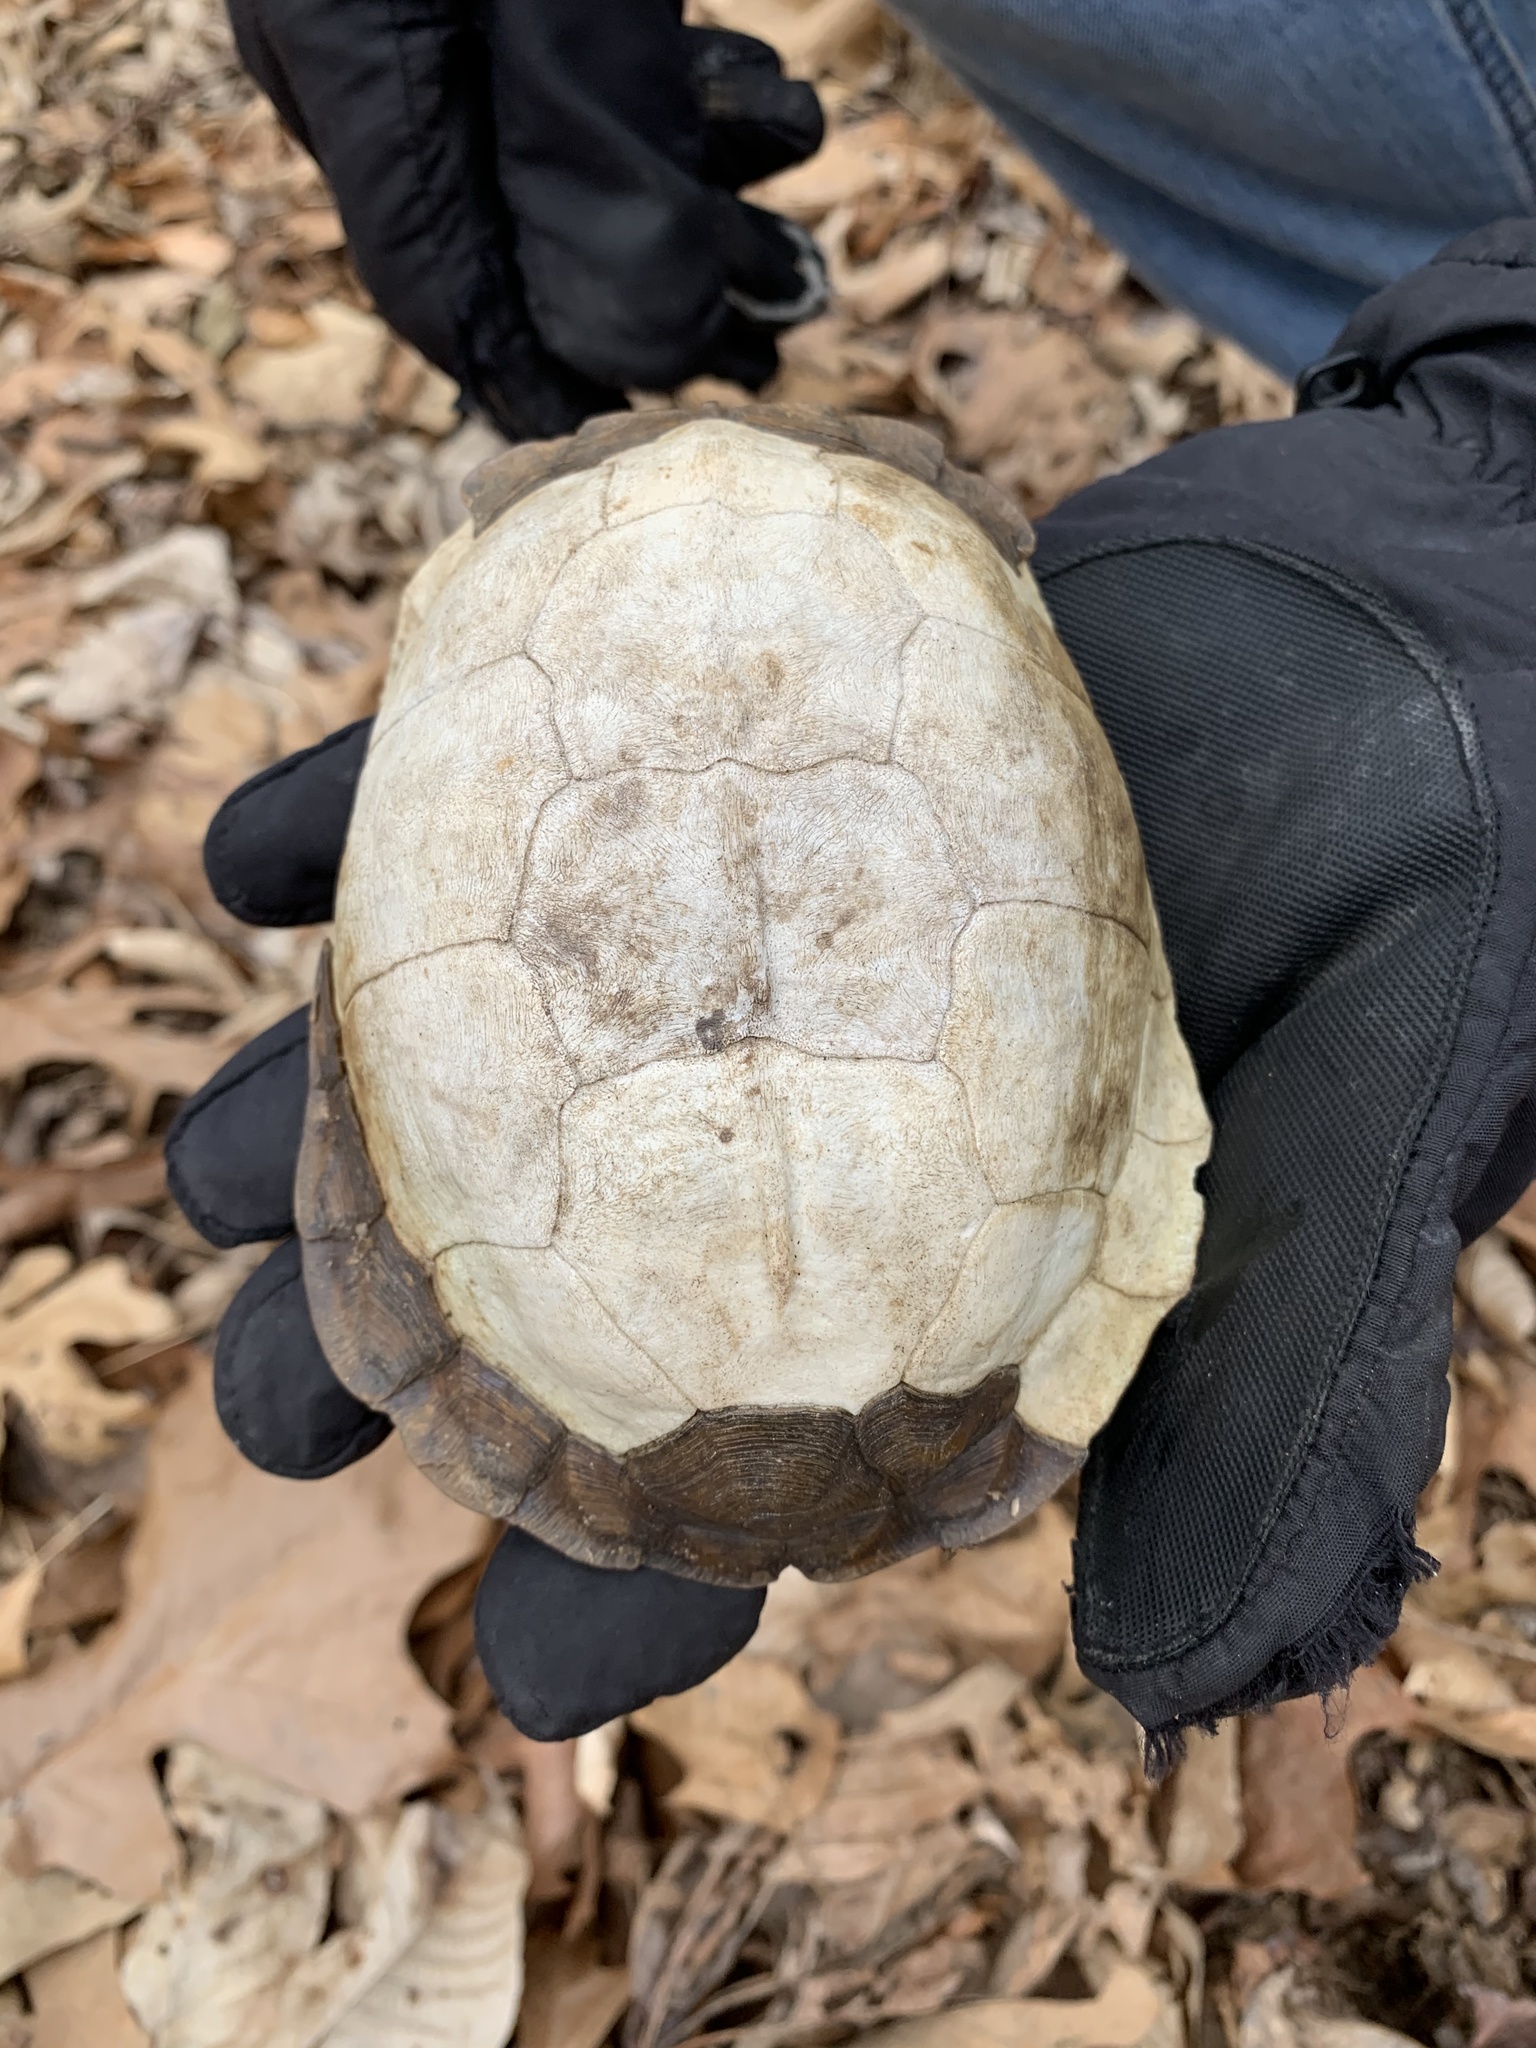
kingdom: Animalia
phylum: Chordata
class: Testudines
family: Emydidae
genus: Terrapene
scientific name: Terrapene carolina
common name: Common box turtle
